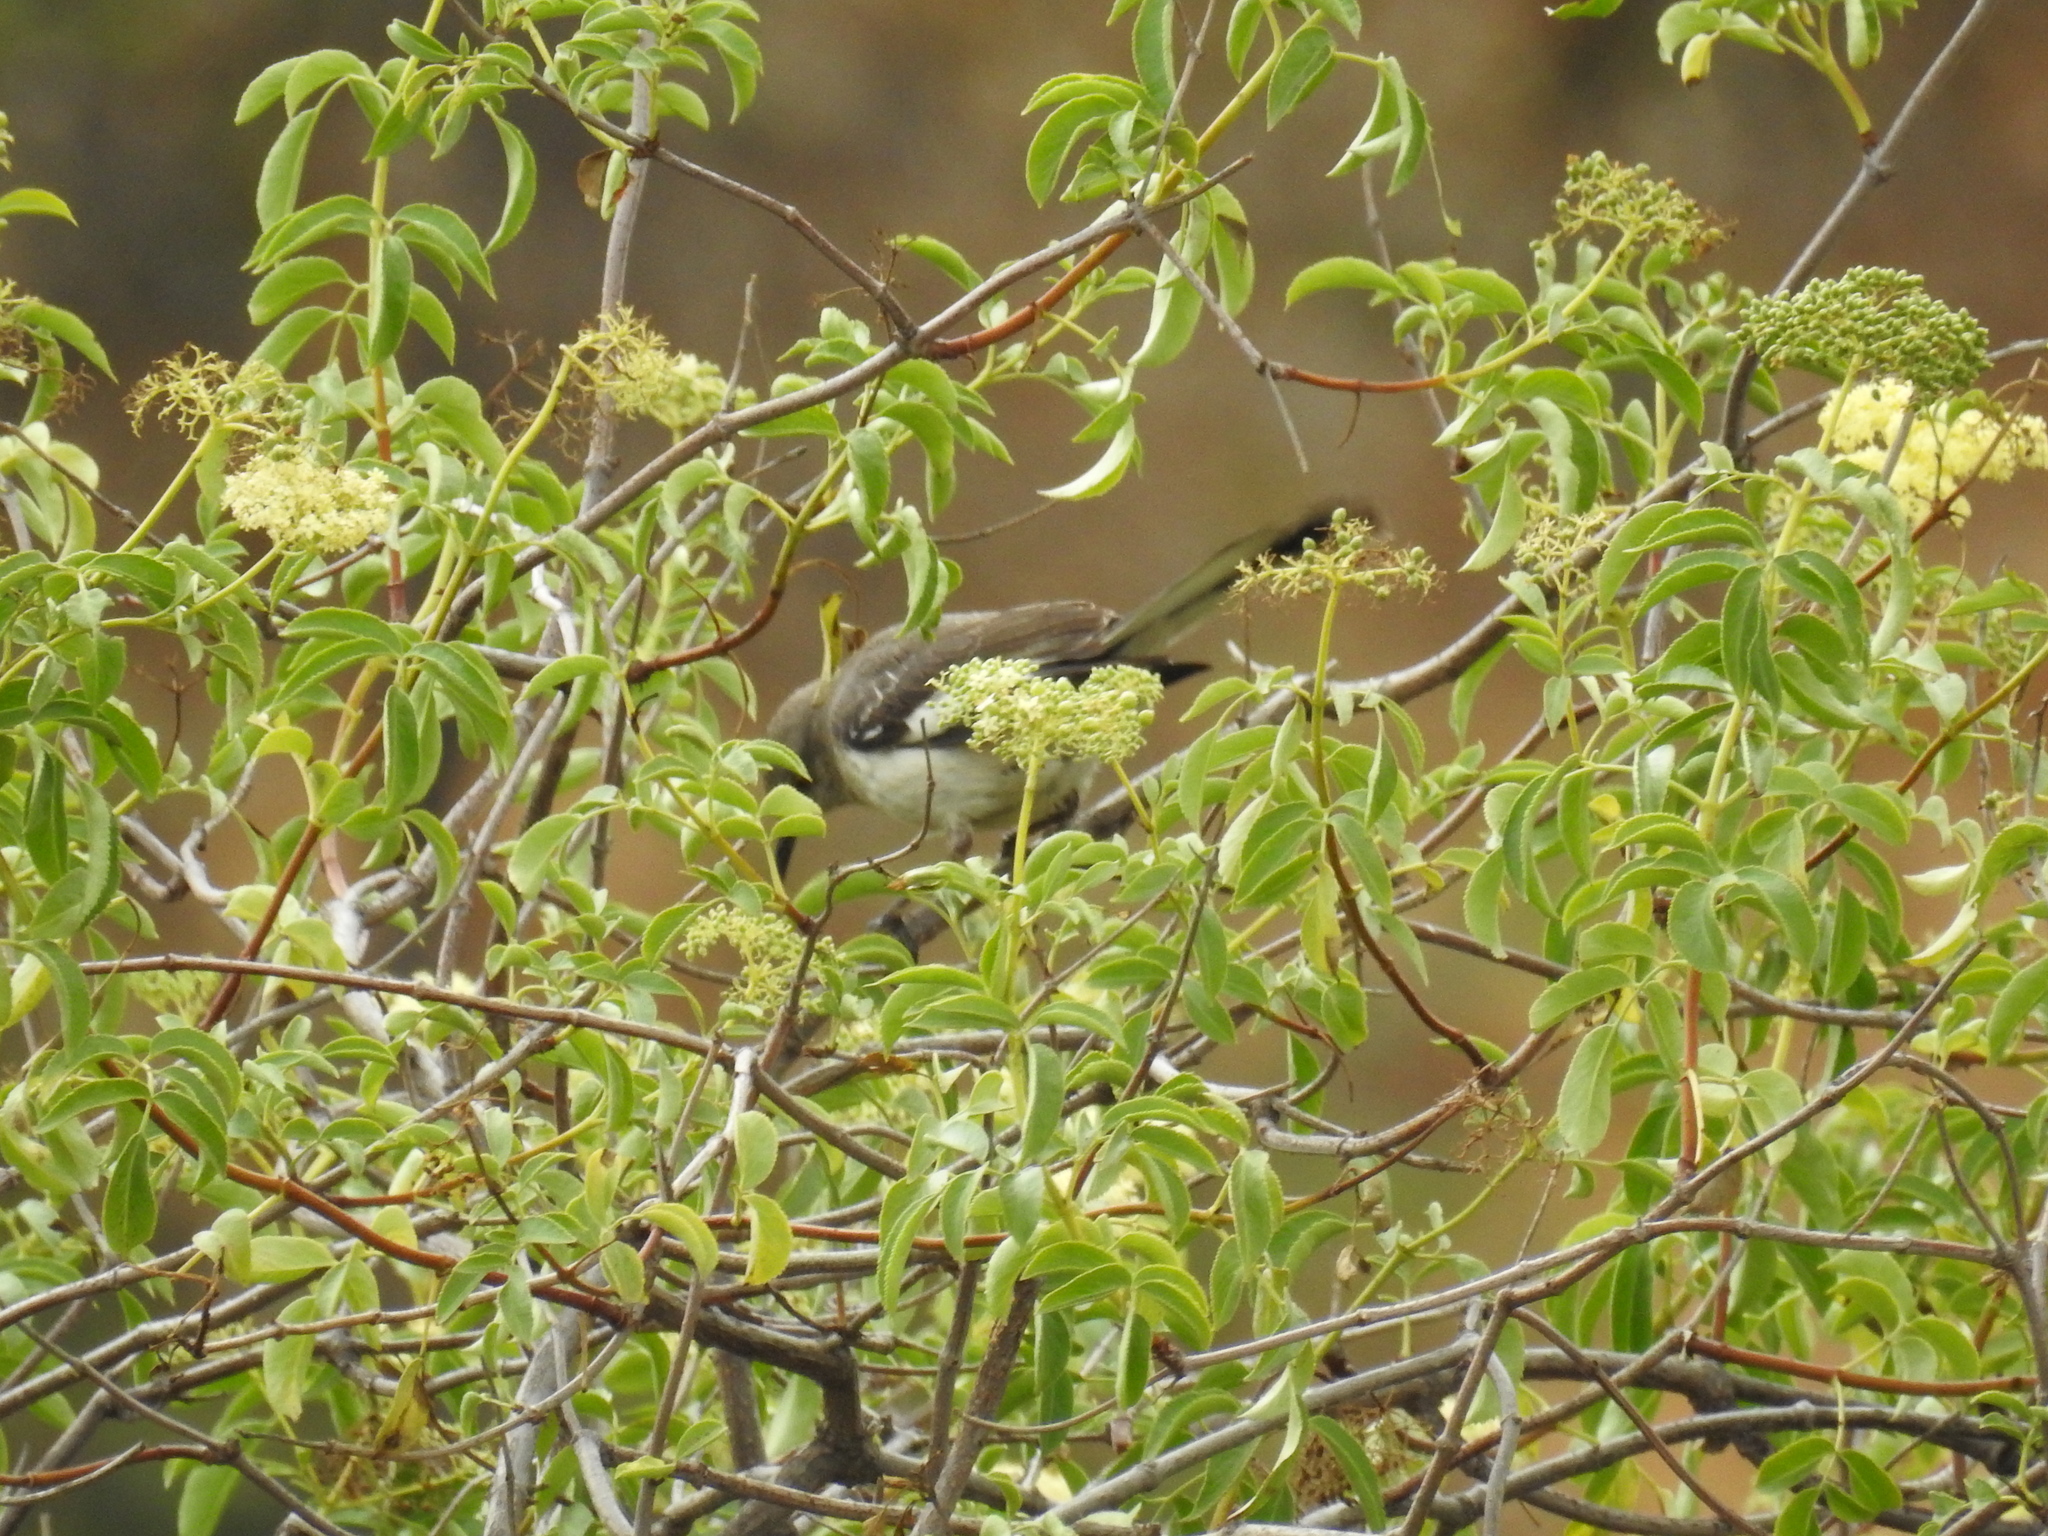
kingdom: Animalia
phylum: Chordata
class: Aves
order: Passeriformes
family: Mimidae
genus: Mimus
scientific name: Mimus polyglottos
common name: Northern mockingbird
